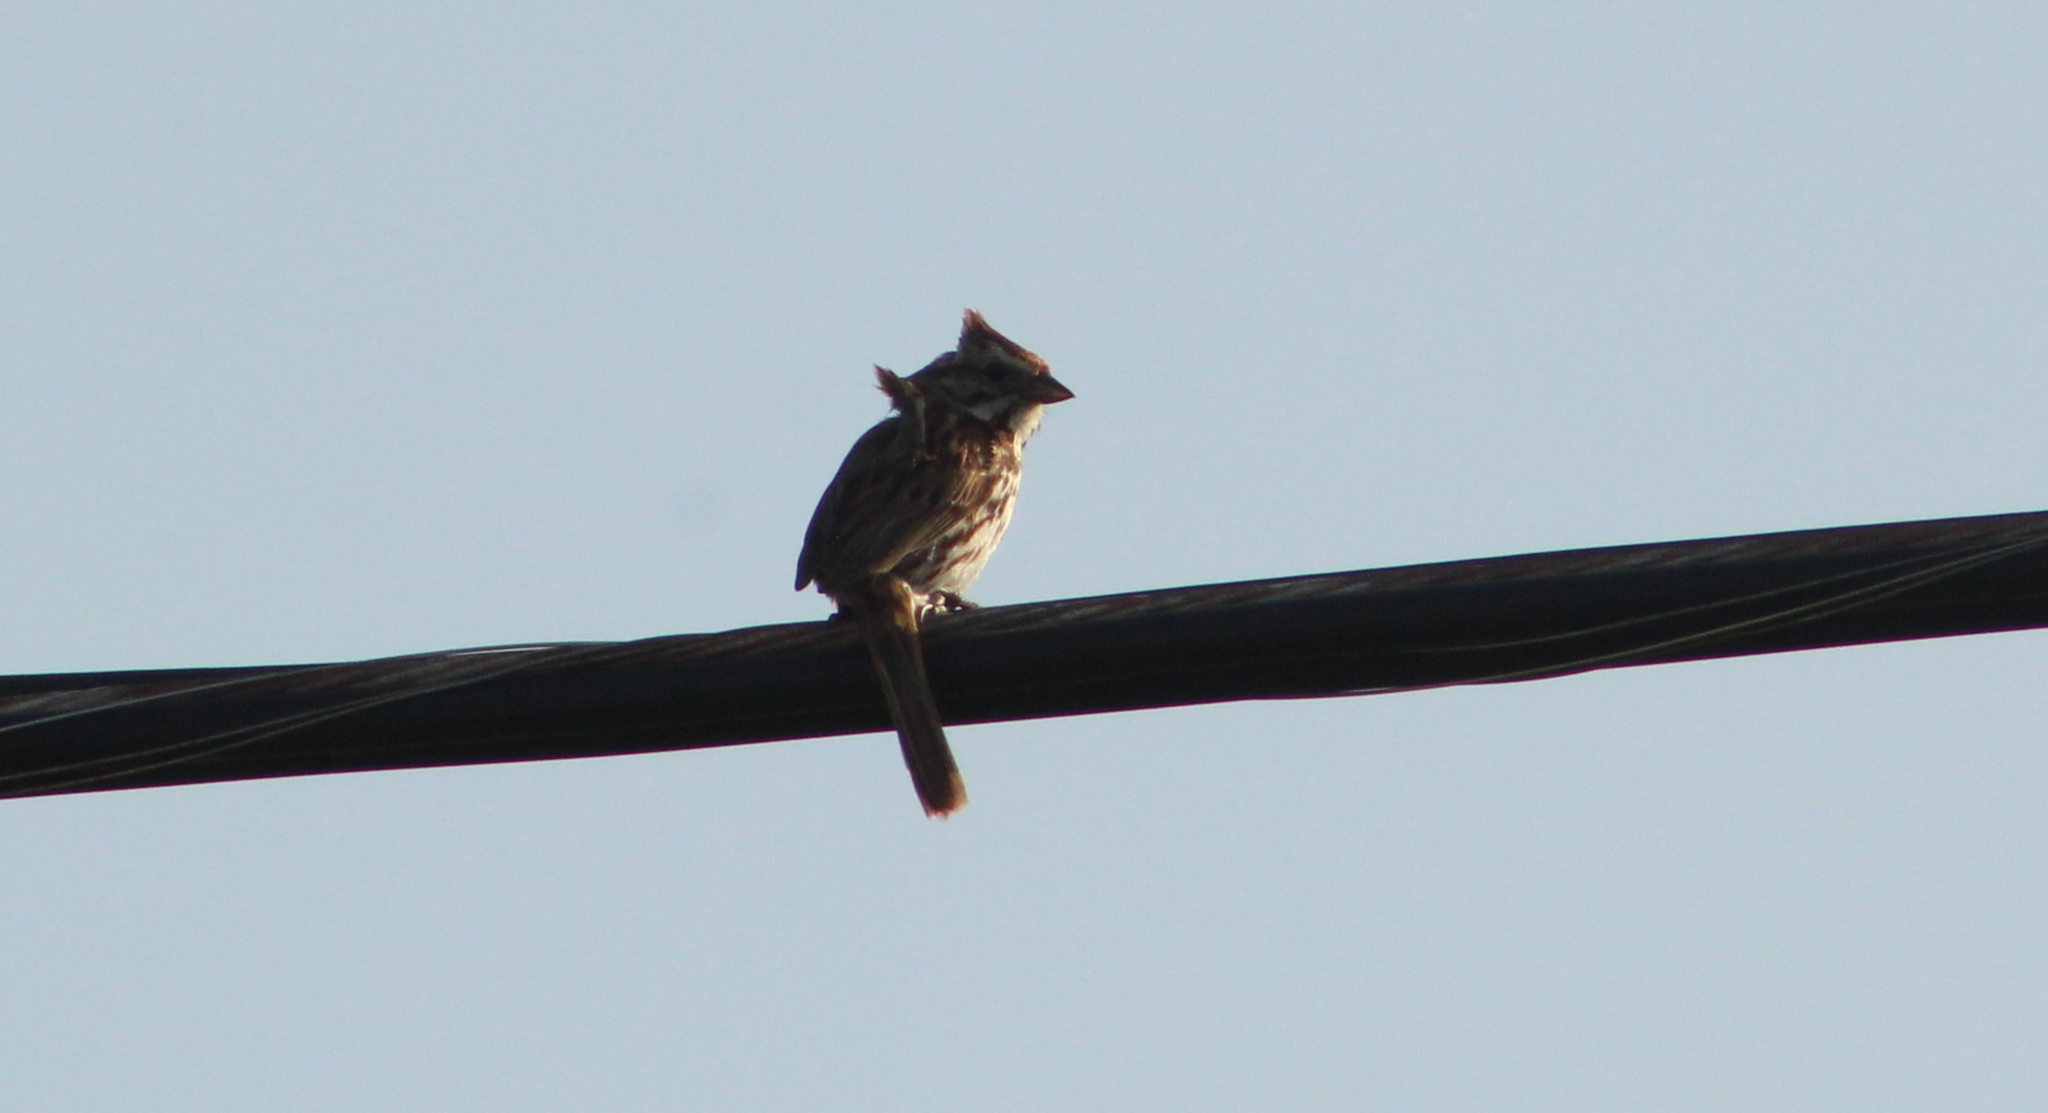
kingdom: Animalia
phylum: Chordata
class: Aves
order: Passeriformes
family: Passerellidae
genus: Melospiza
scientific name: Melospiza melodia
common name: Song sparrow
